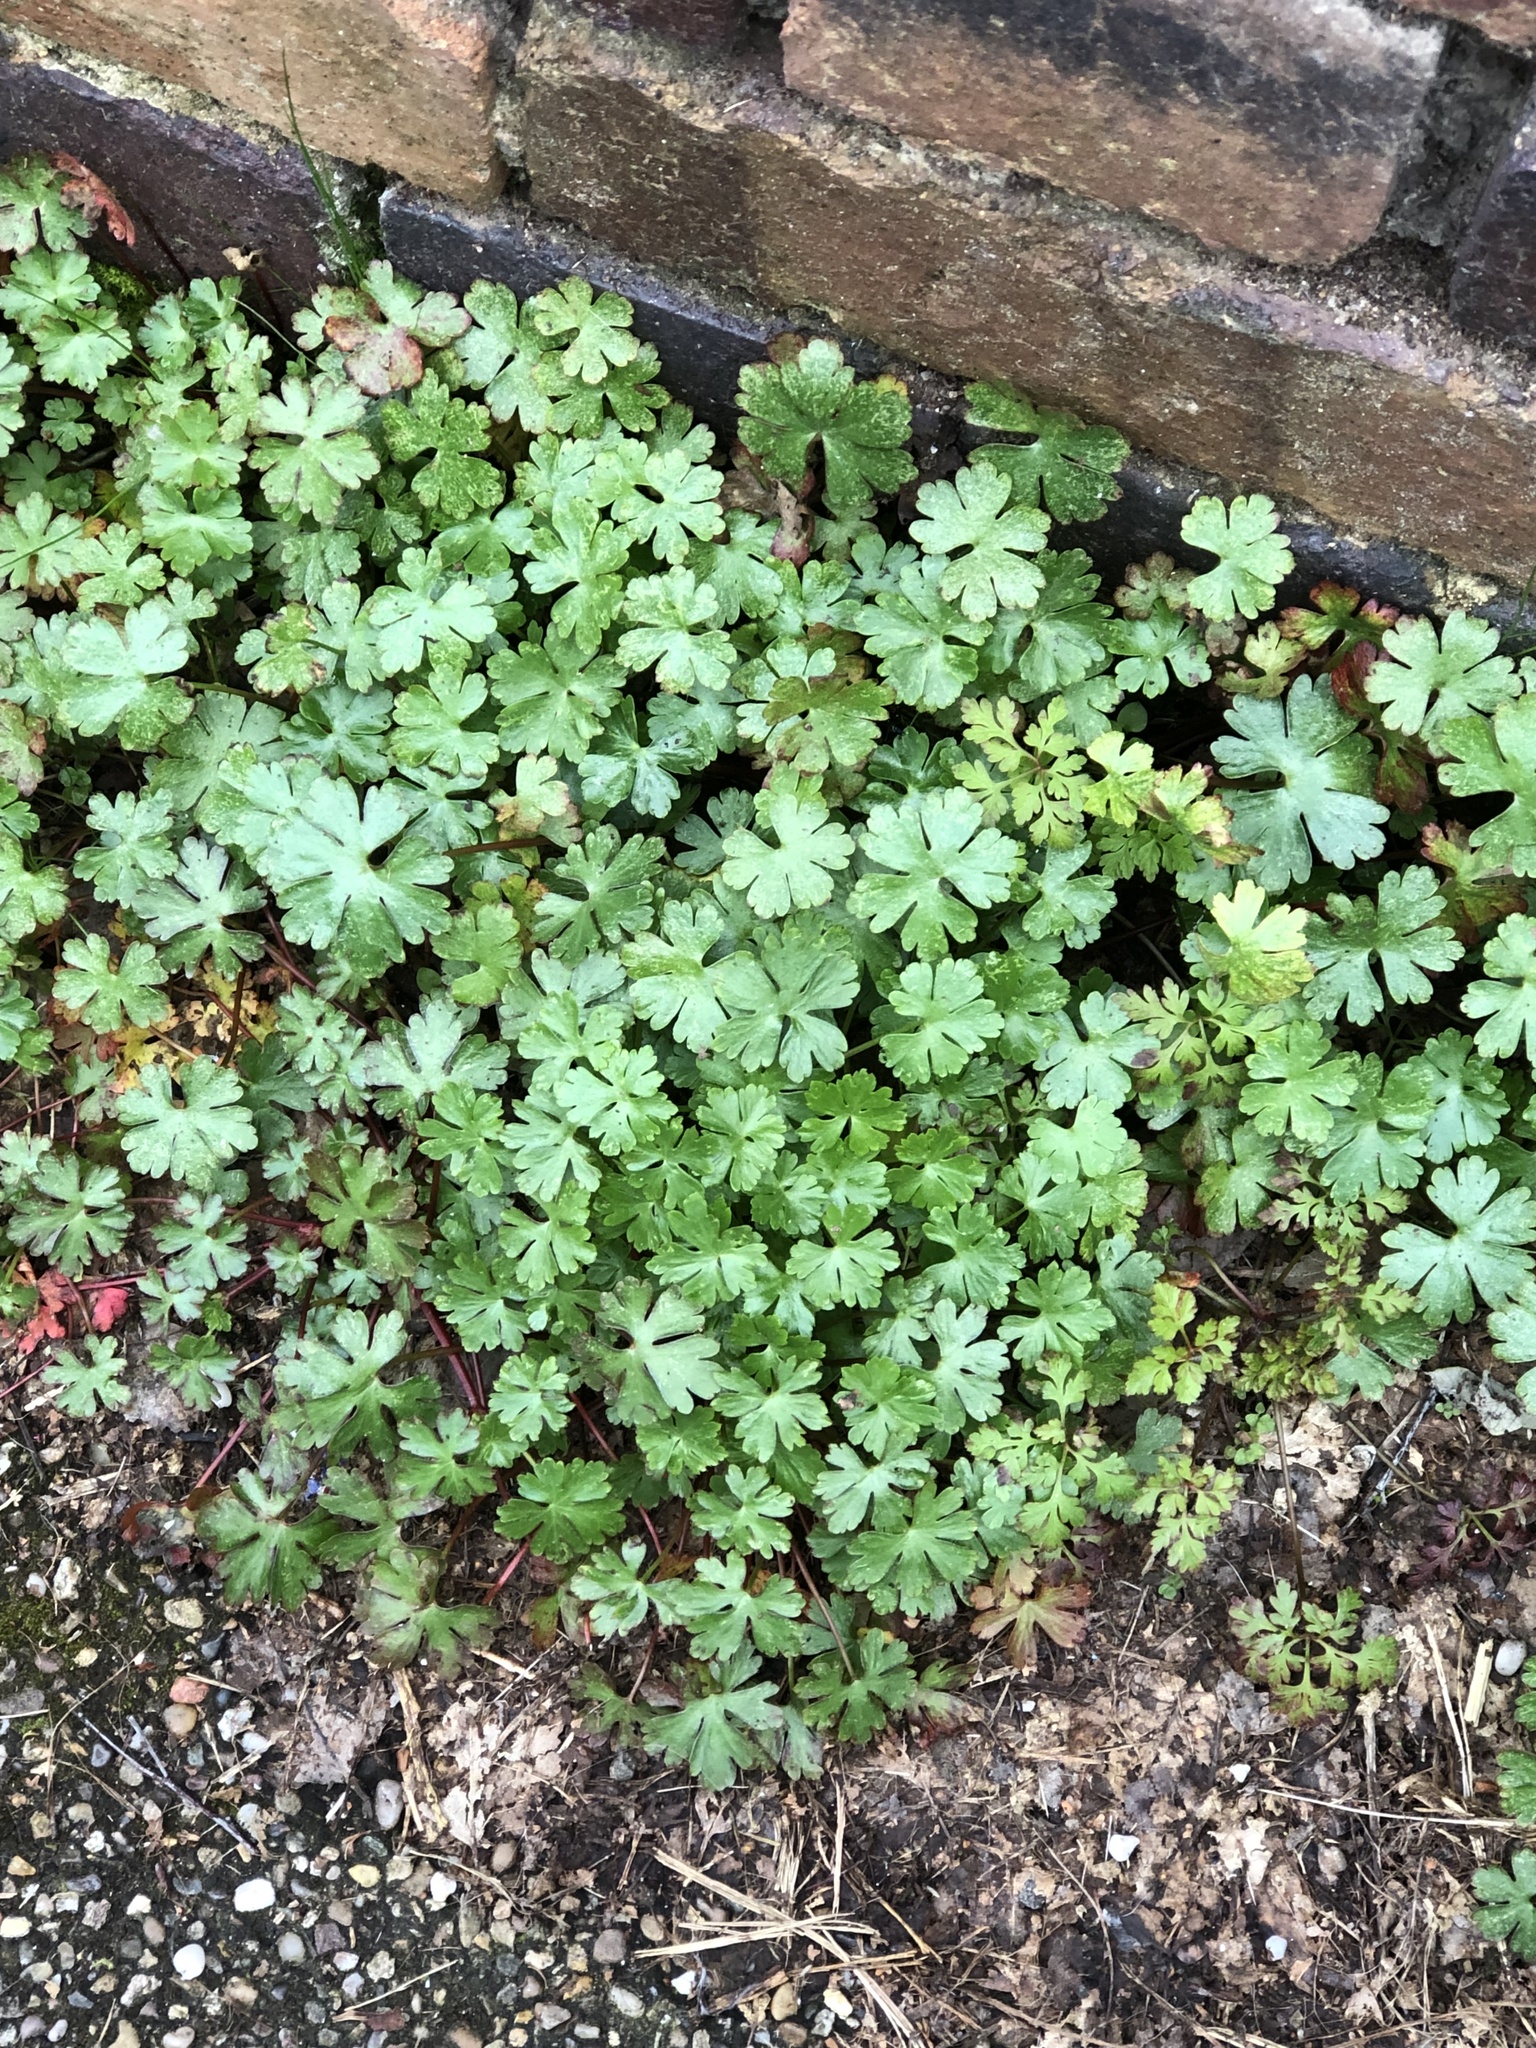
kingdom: Plantae
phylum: Tracheophyta
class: Magnoliopsida
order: Geraniales
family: Geraniaceae
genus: Geranium
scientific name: Geranium lucidum
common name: Shining crane's-bill
